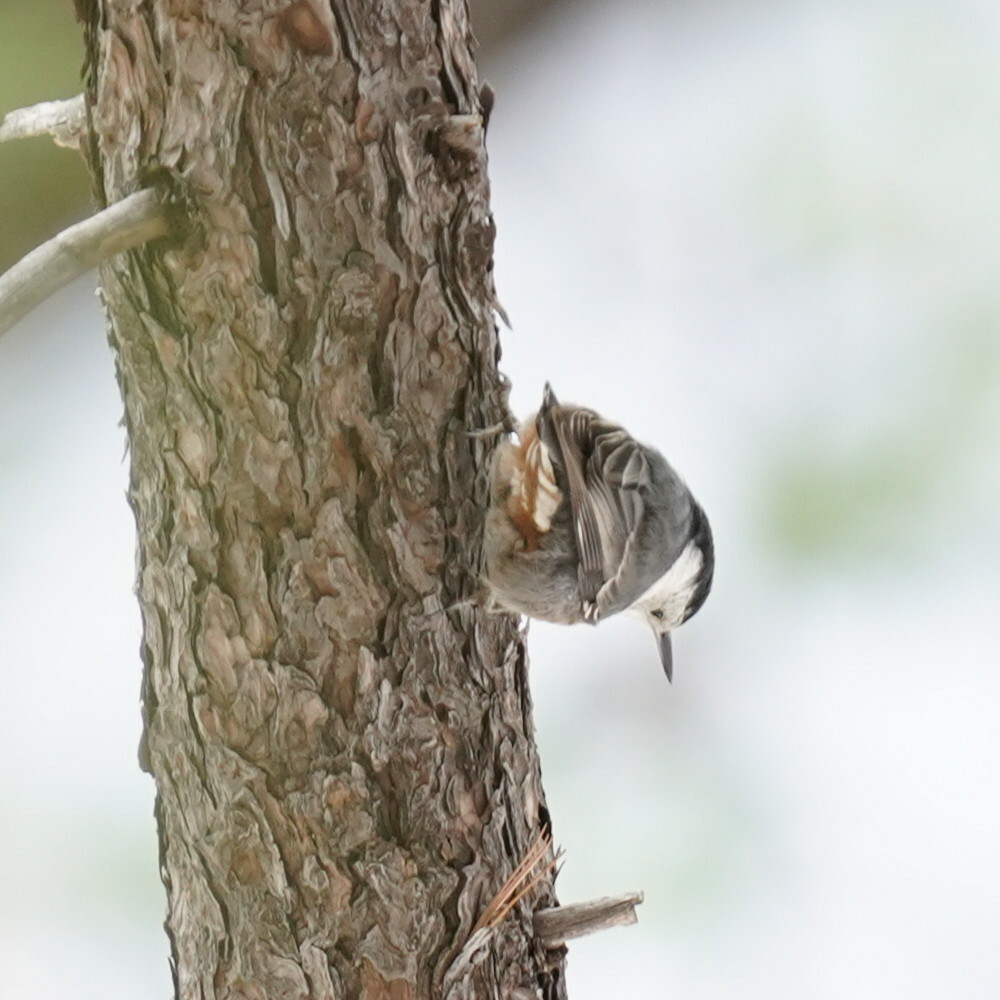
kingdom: Animalia
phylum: Chordata
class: Aves
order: Passeriformes
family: Sittidae
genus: Sitta
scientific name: Sitta carolinensis
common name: White-breasted nuthatch
